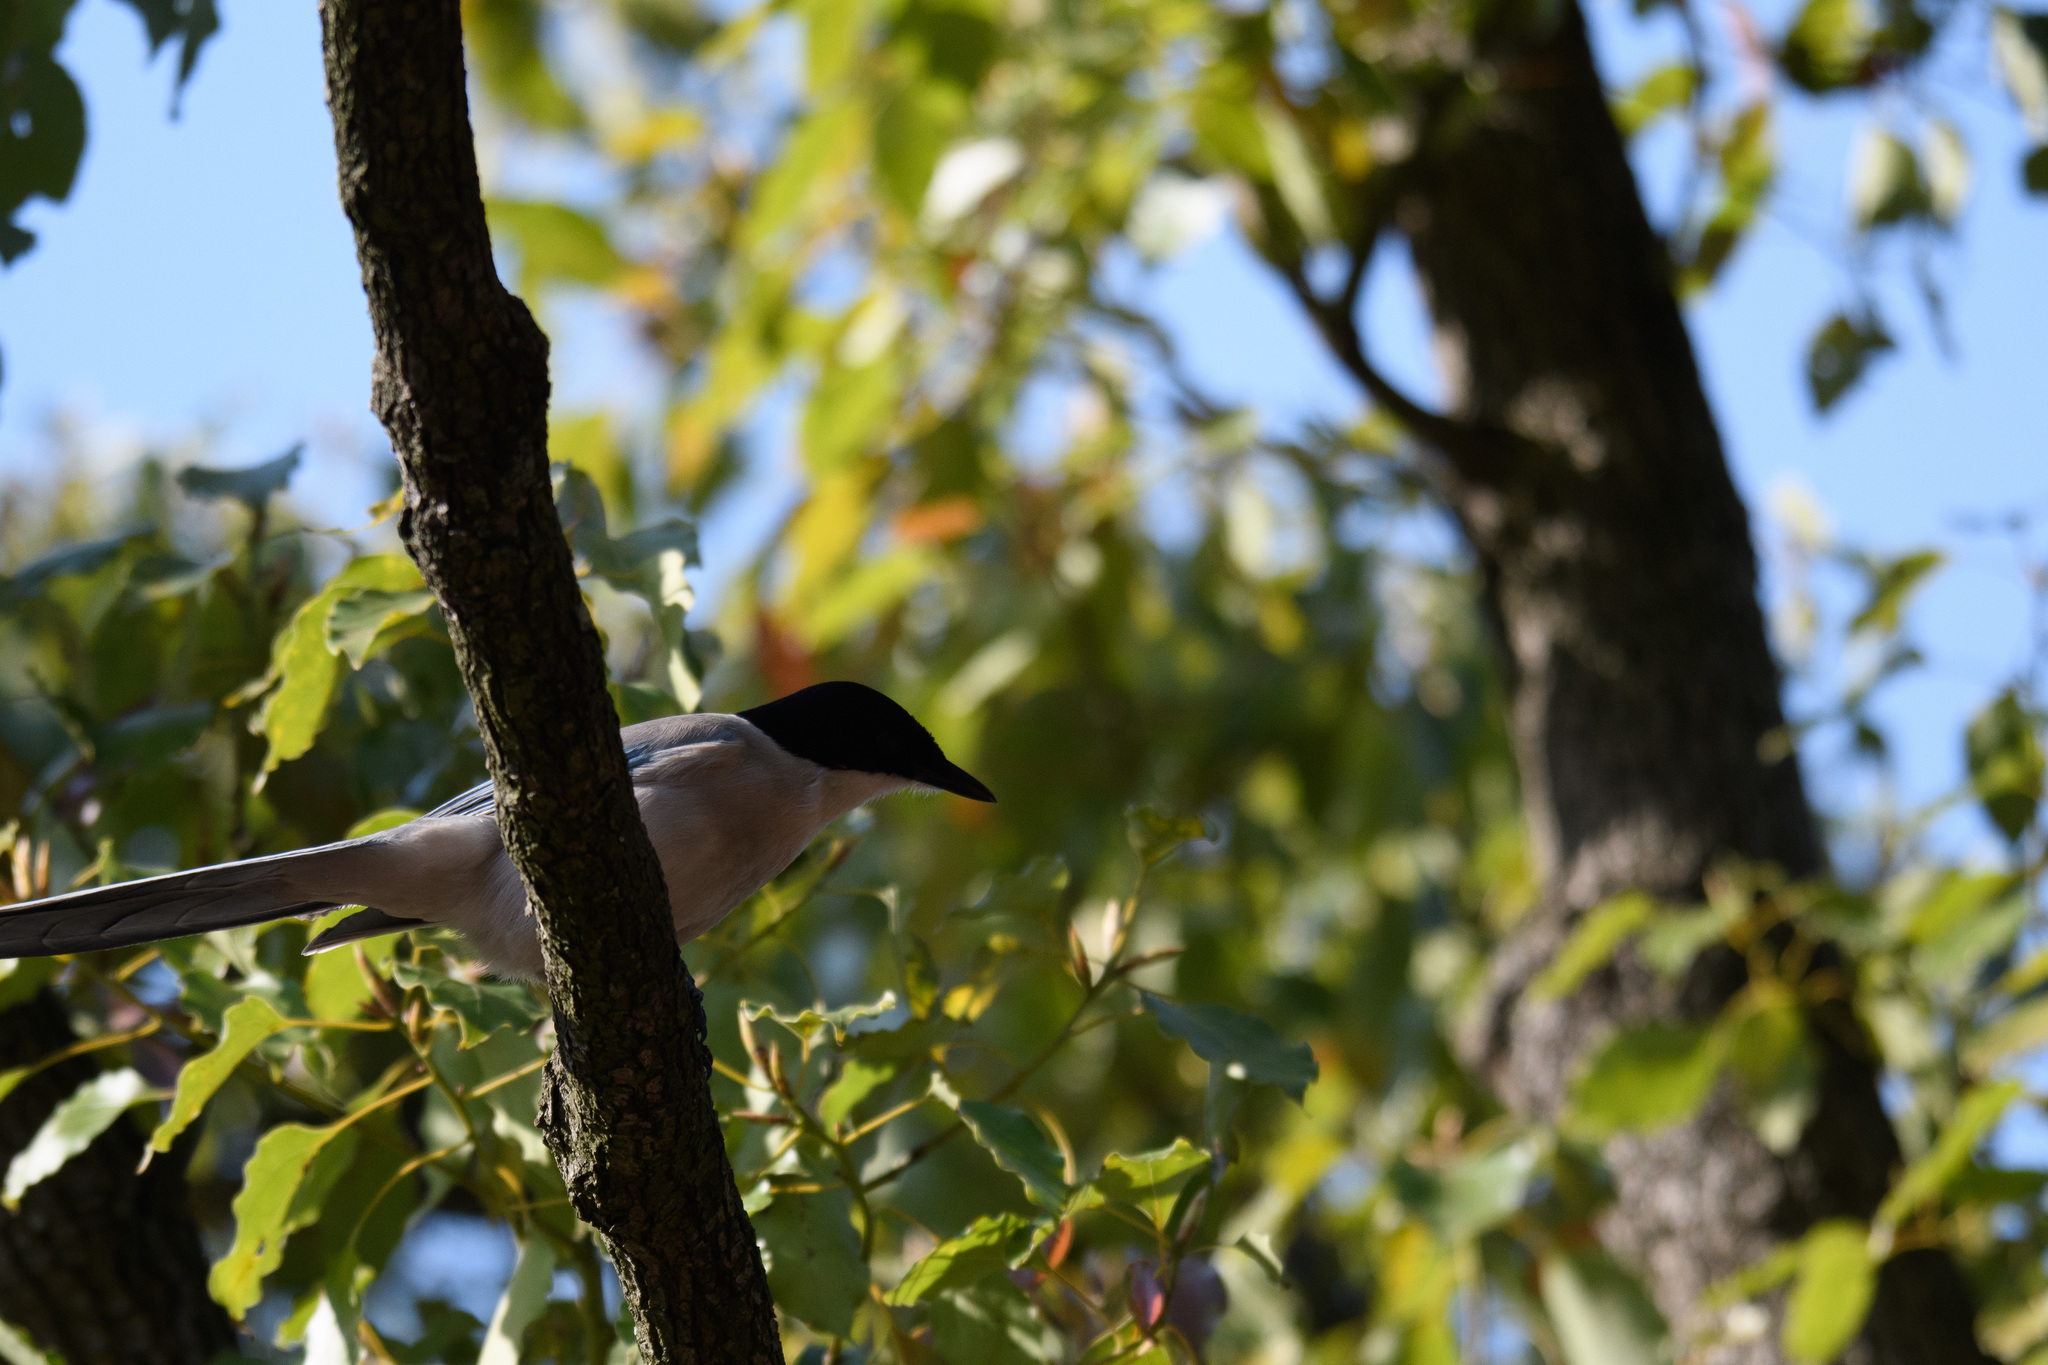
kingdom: Animalia
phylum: Chordata
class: Aves
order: Passeriformes
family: Corvidae
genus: Cyanopica
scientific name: Cyanopica cyanus
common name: Azure-winged magpie
